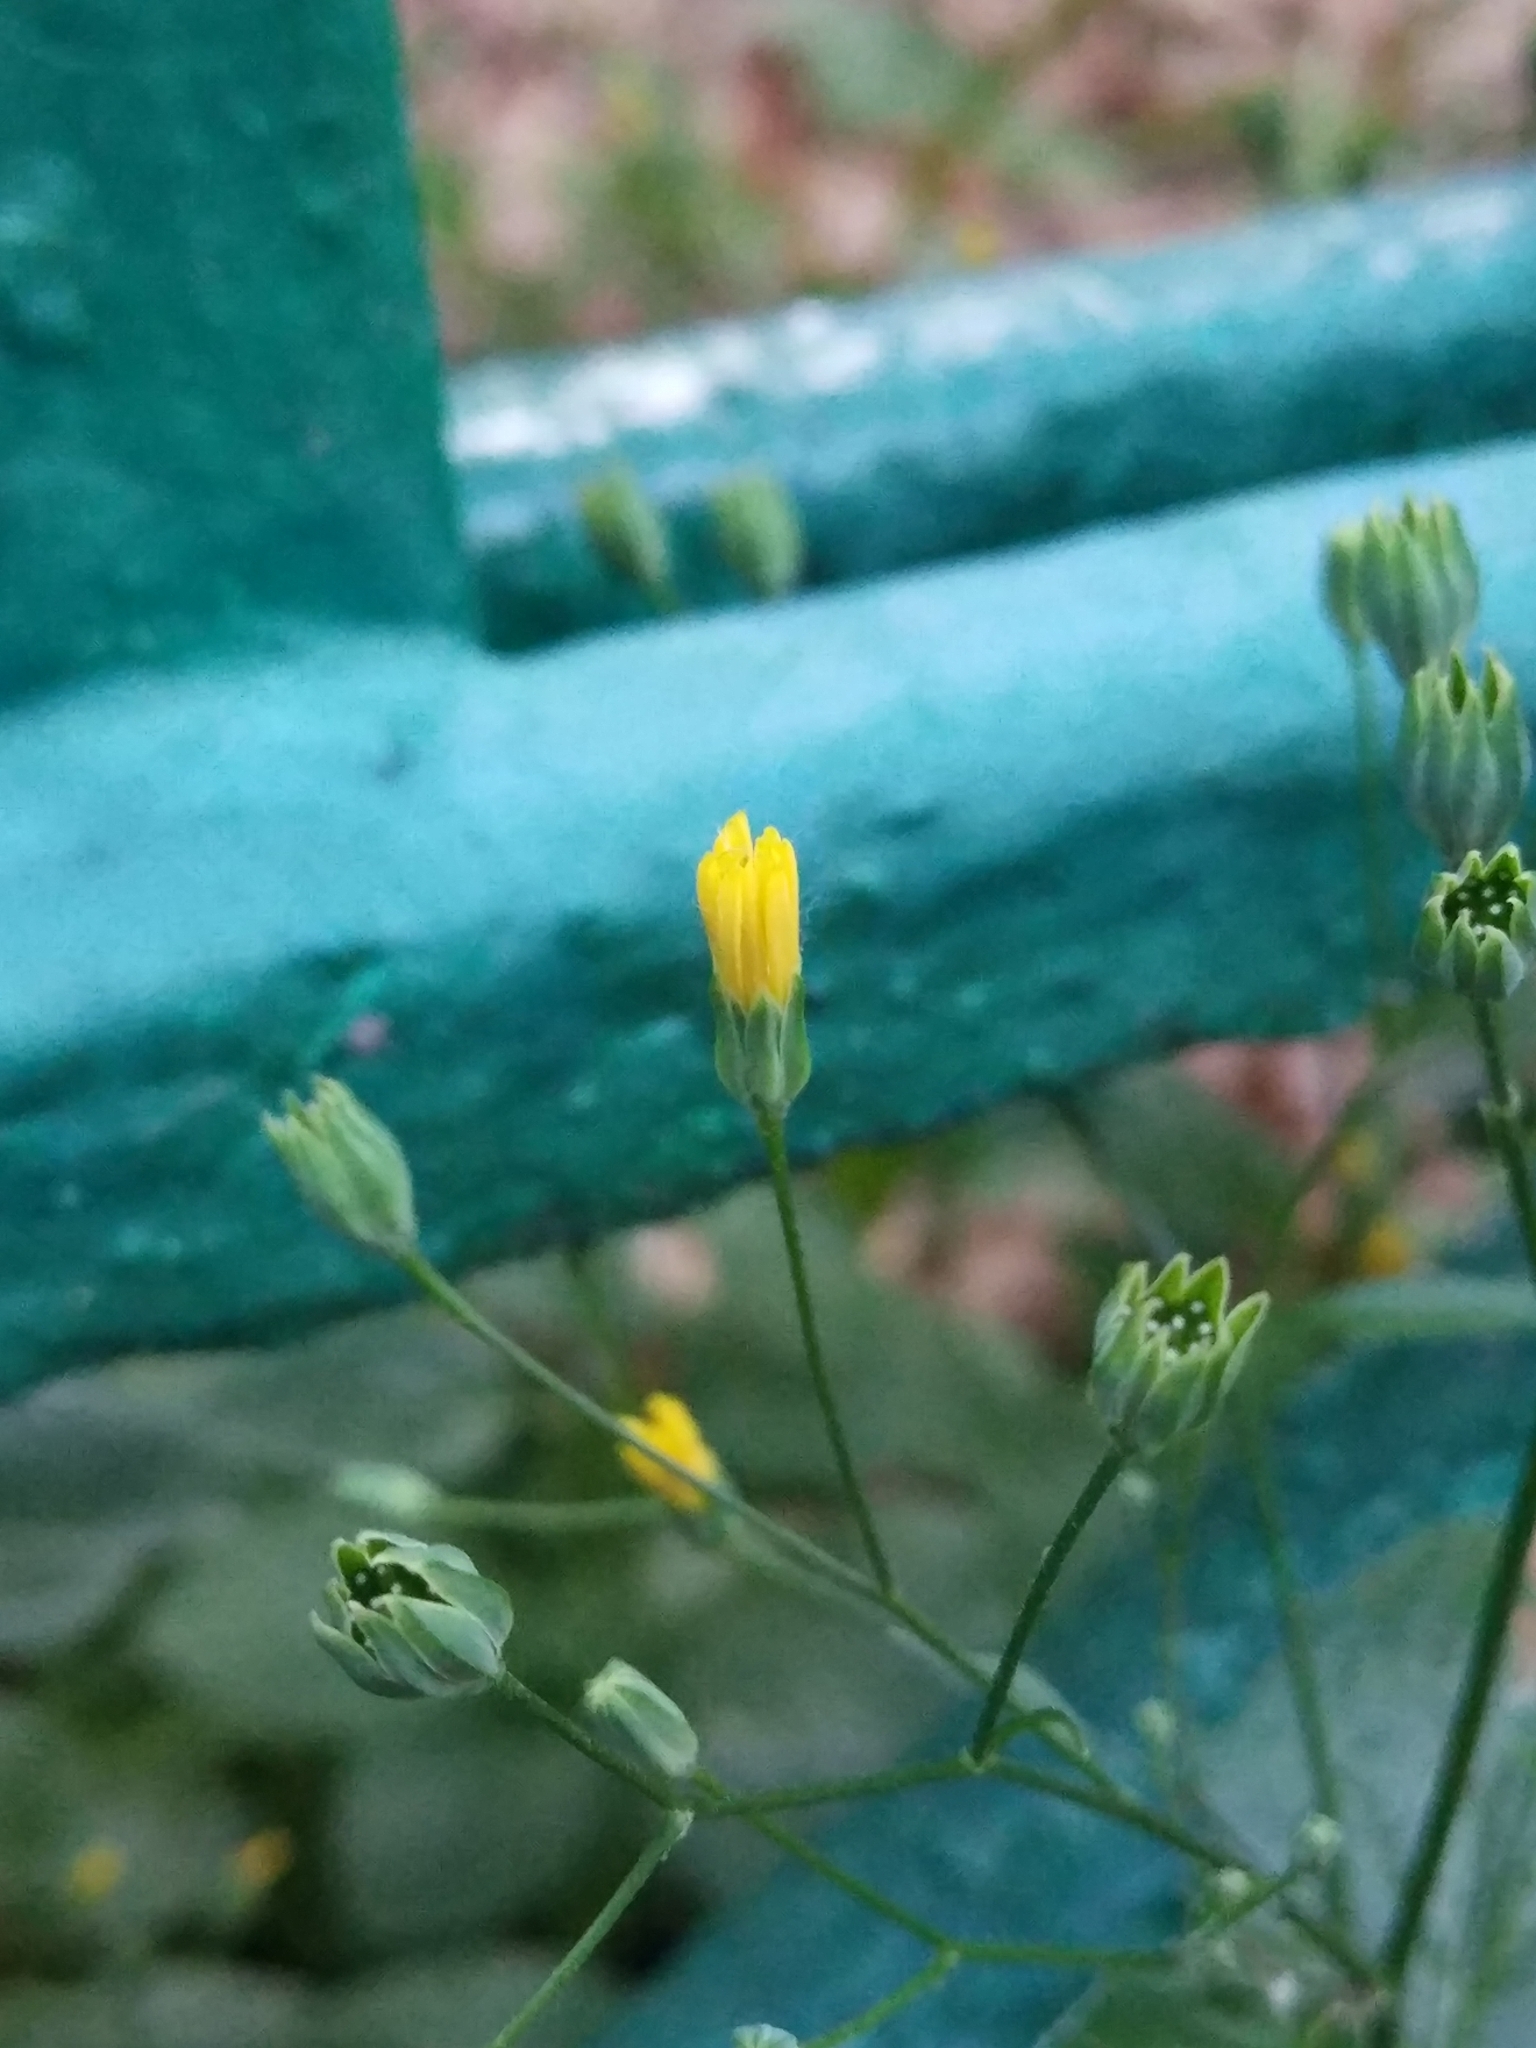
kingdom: Plantae
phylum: Tracheophyta
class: Magnoliopsida
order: Asterales
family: Asteraceae
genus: Lapsana
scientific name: Lapsana communis
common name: Nipplewort
